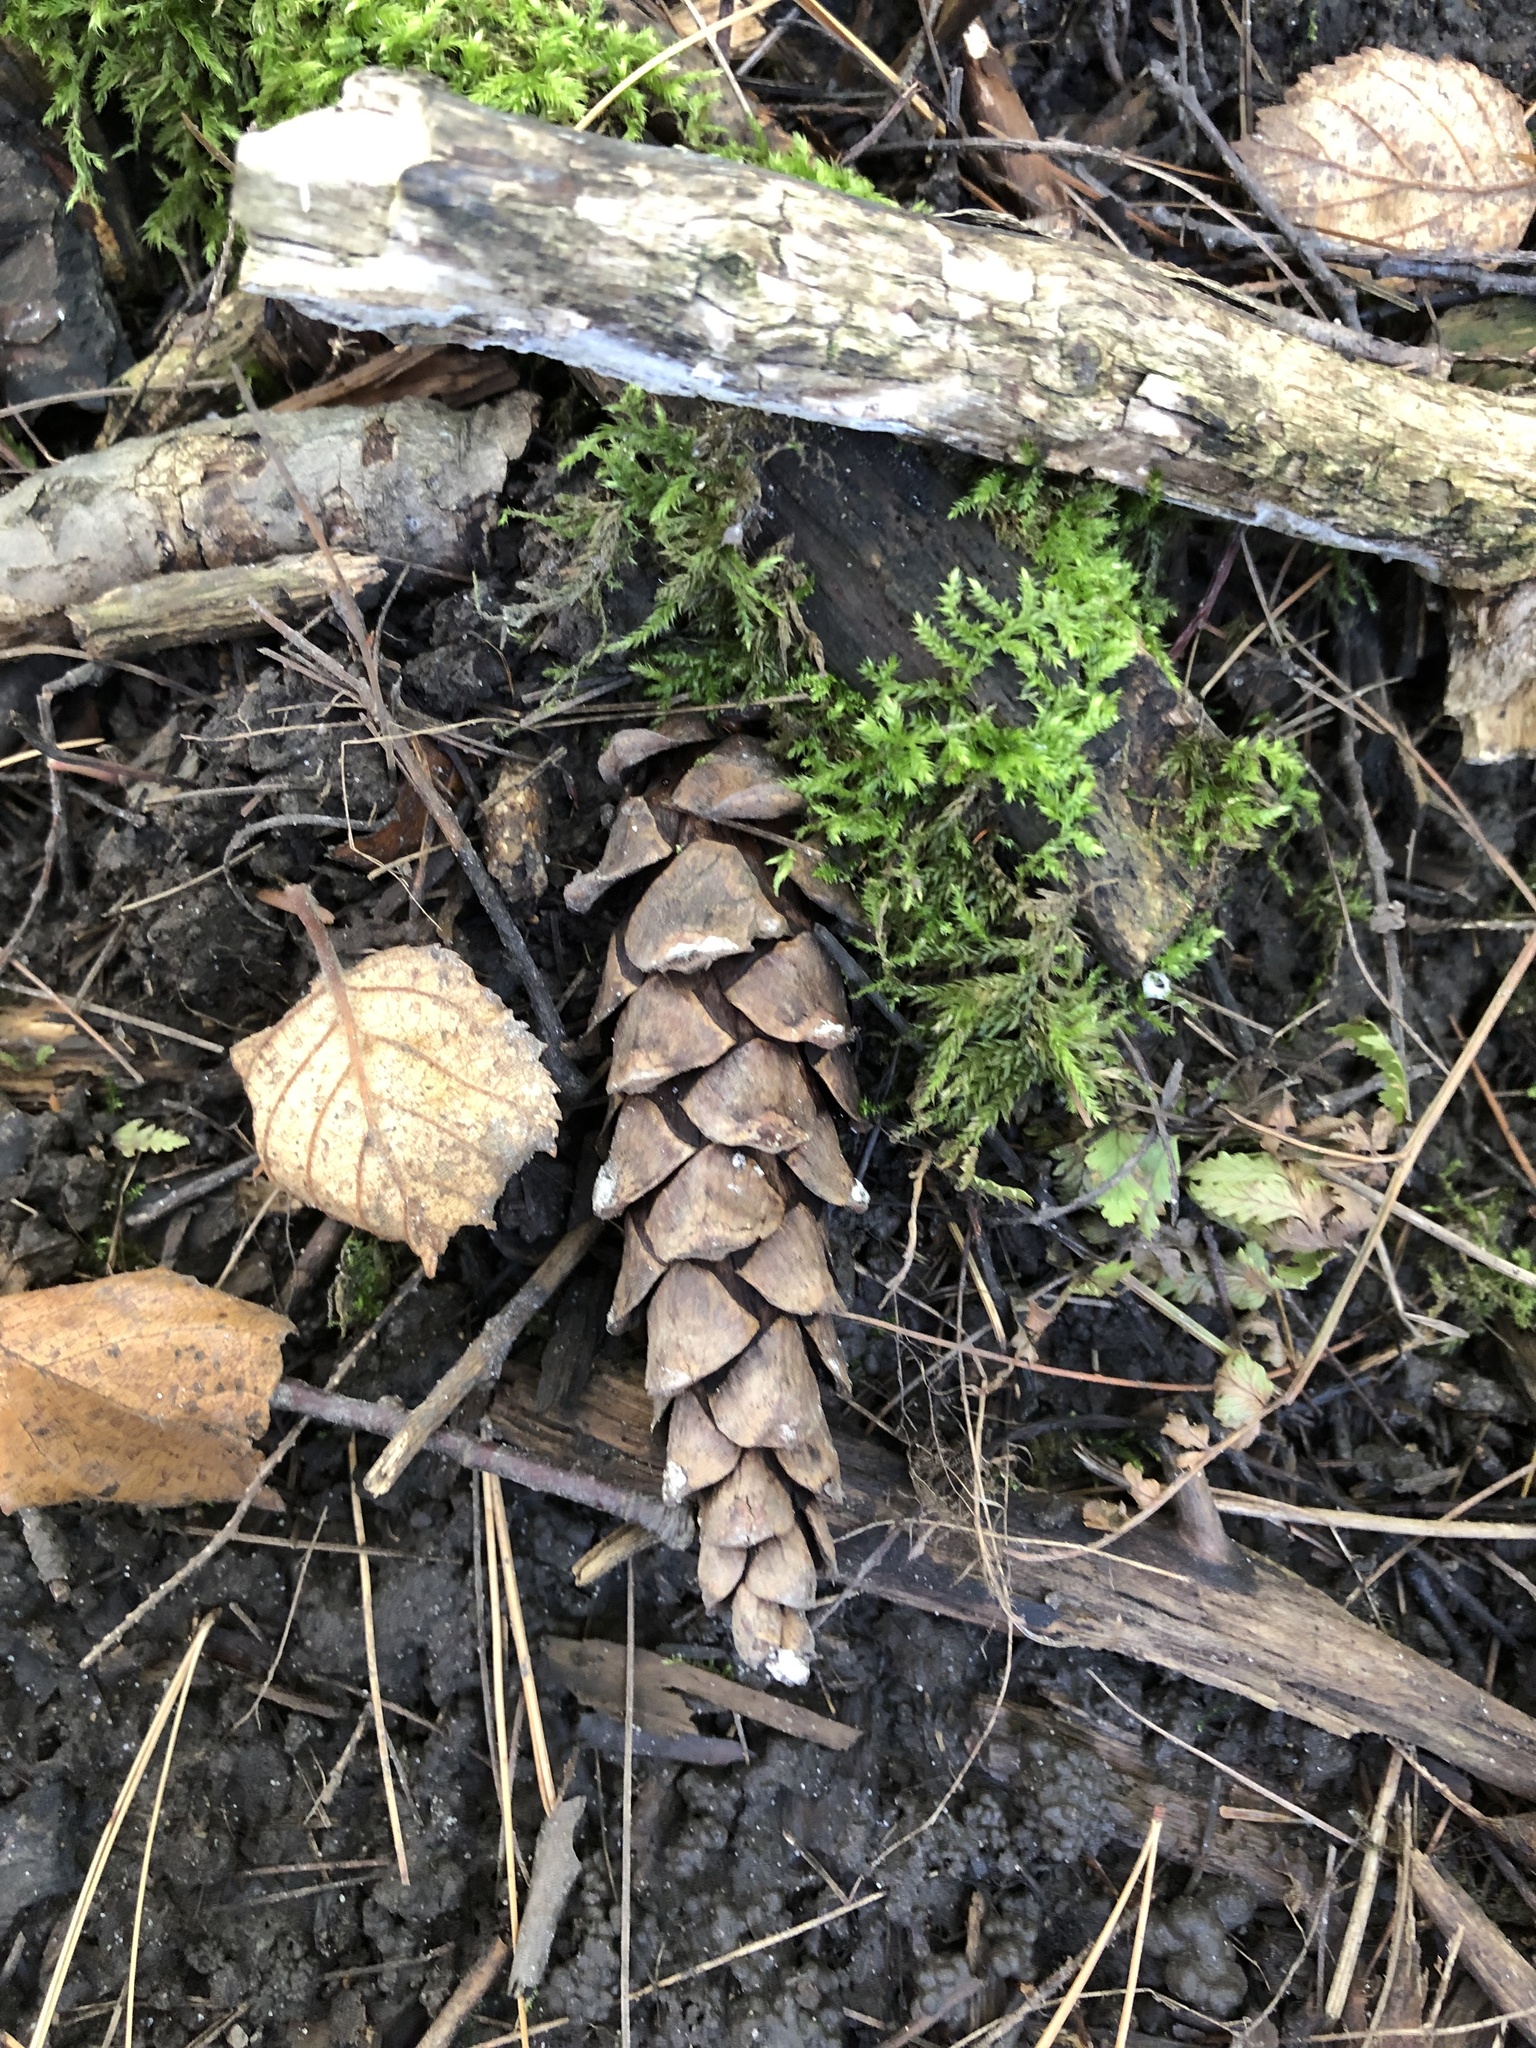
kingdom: Plantae
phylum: Tracheophyta
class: Pinopsida
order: Pinales
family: Pinaceae
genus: Pinus
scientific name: Pinus strobus
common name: Weymouth pine
